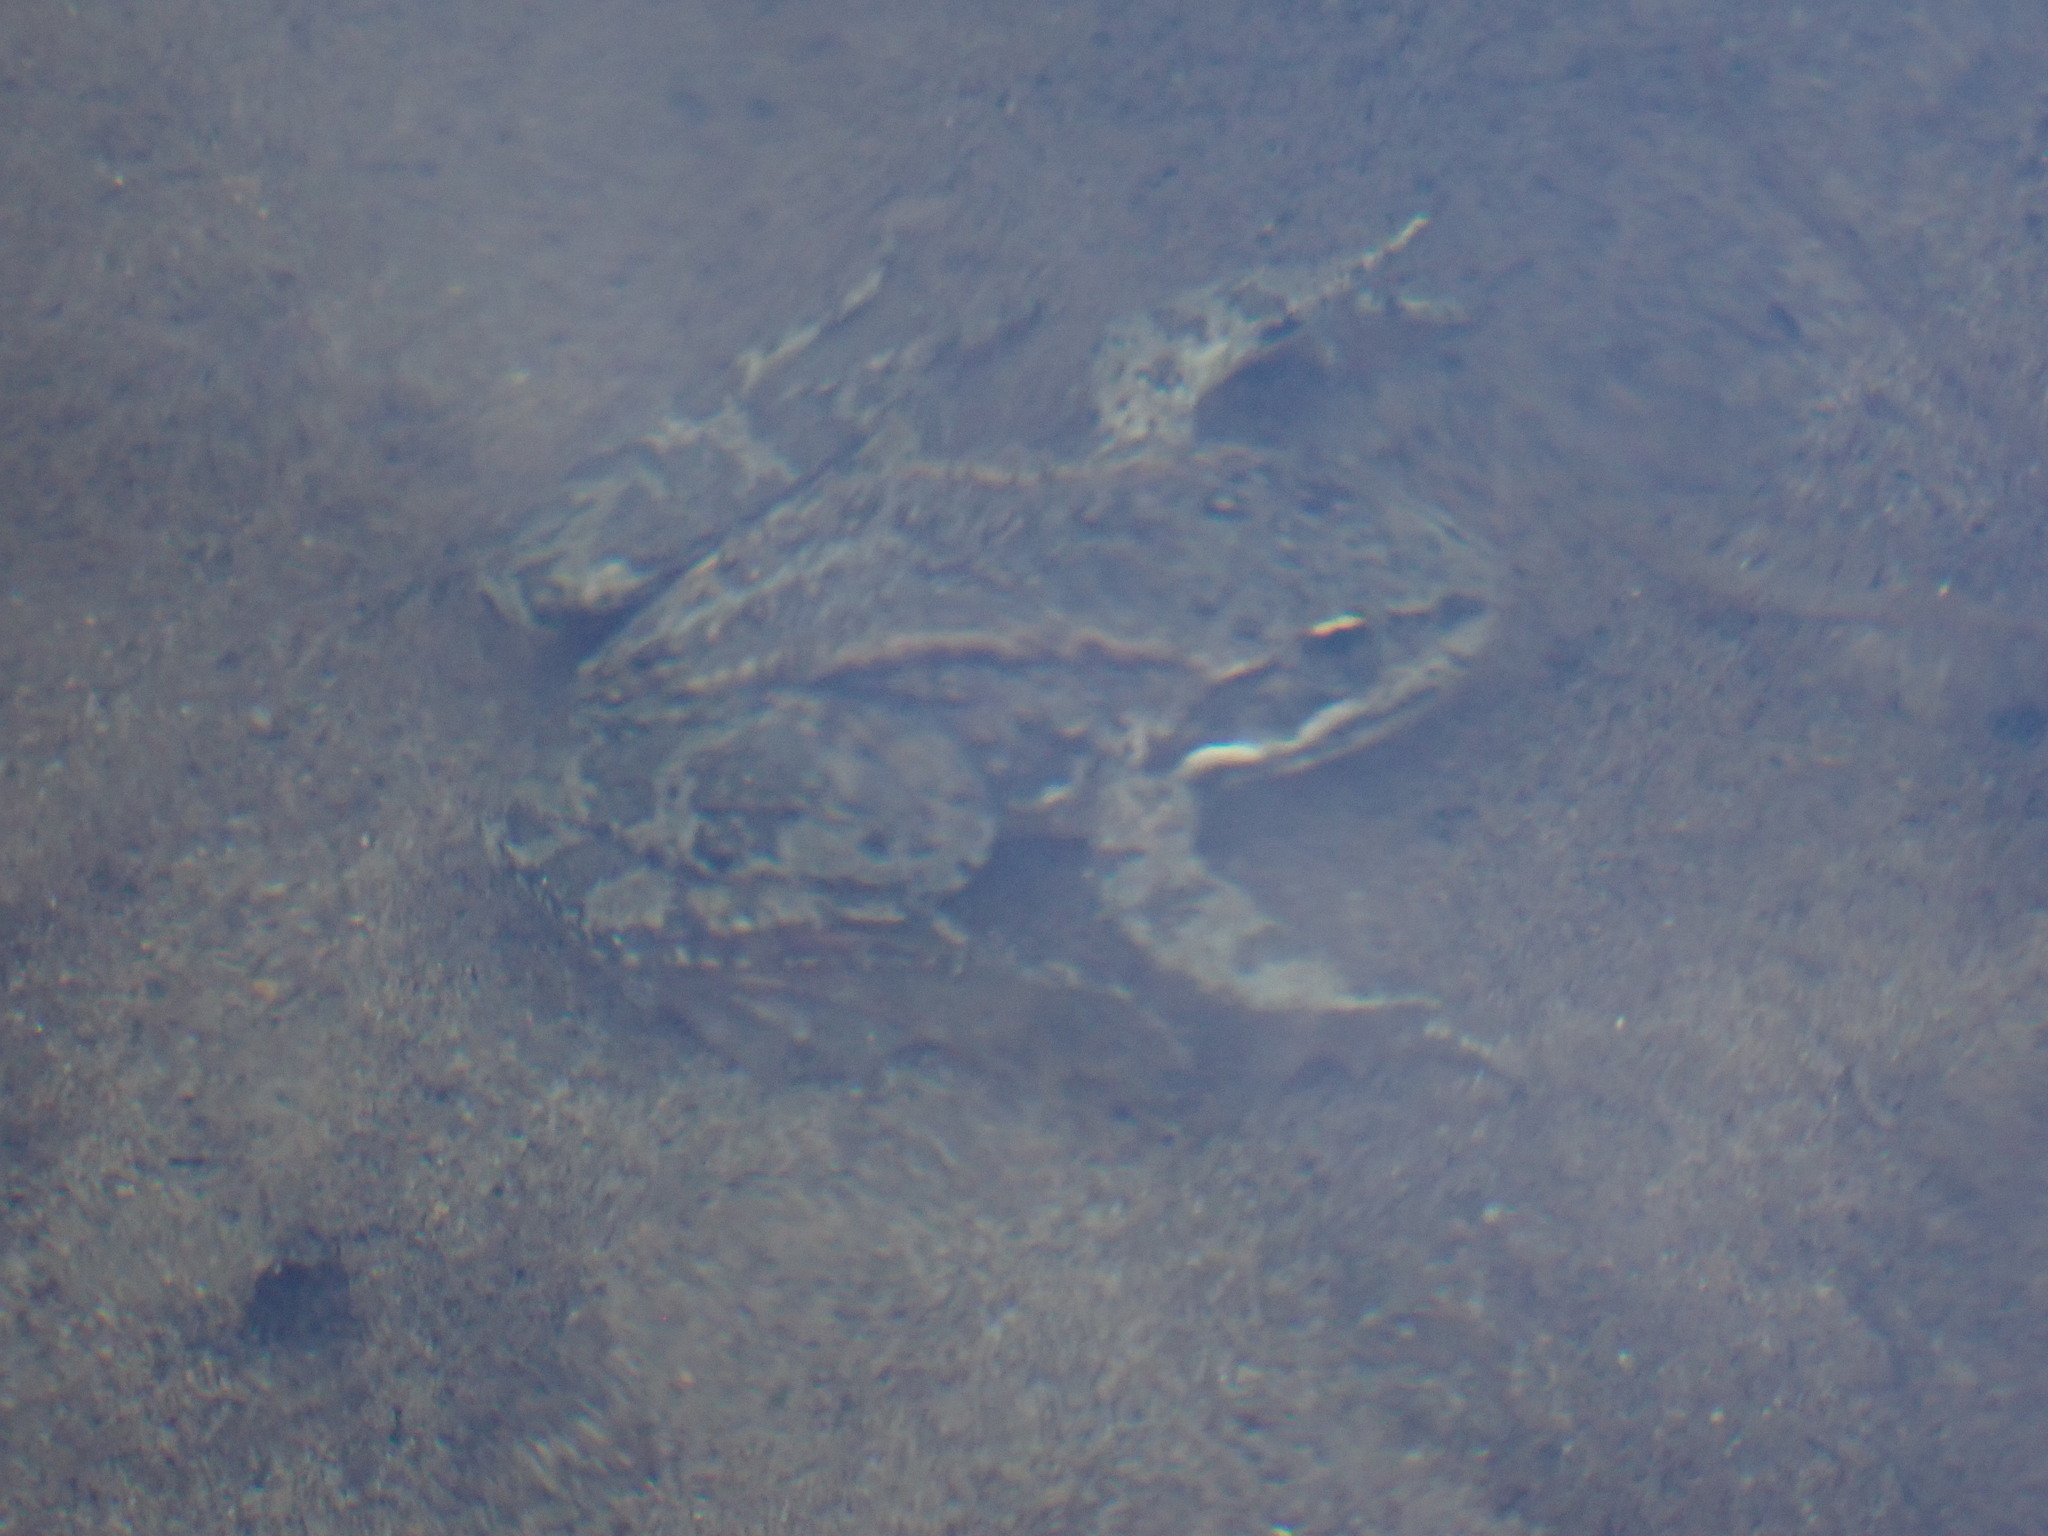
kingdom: Animalia
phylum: Chordata
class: Amphibia
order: Anura
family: Ranidae
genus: Rana
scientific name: Rana luteiventris
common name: Columbia spotted frog
